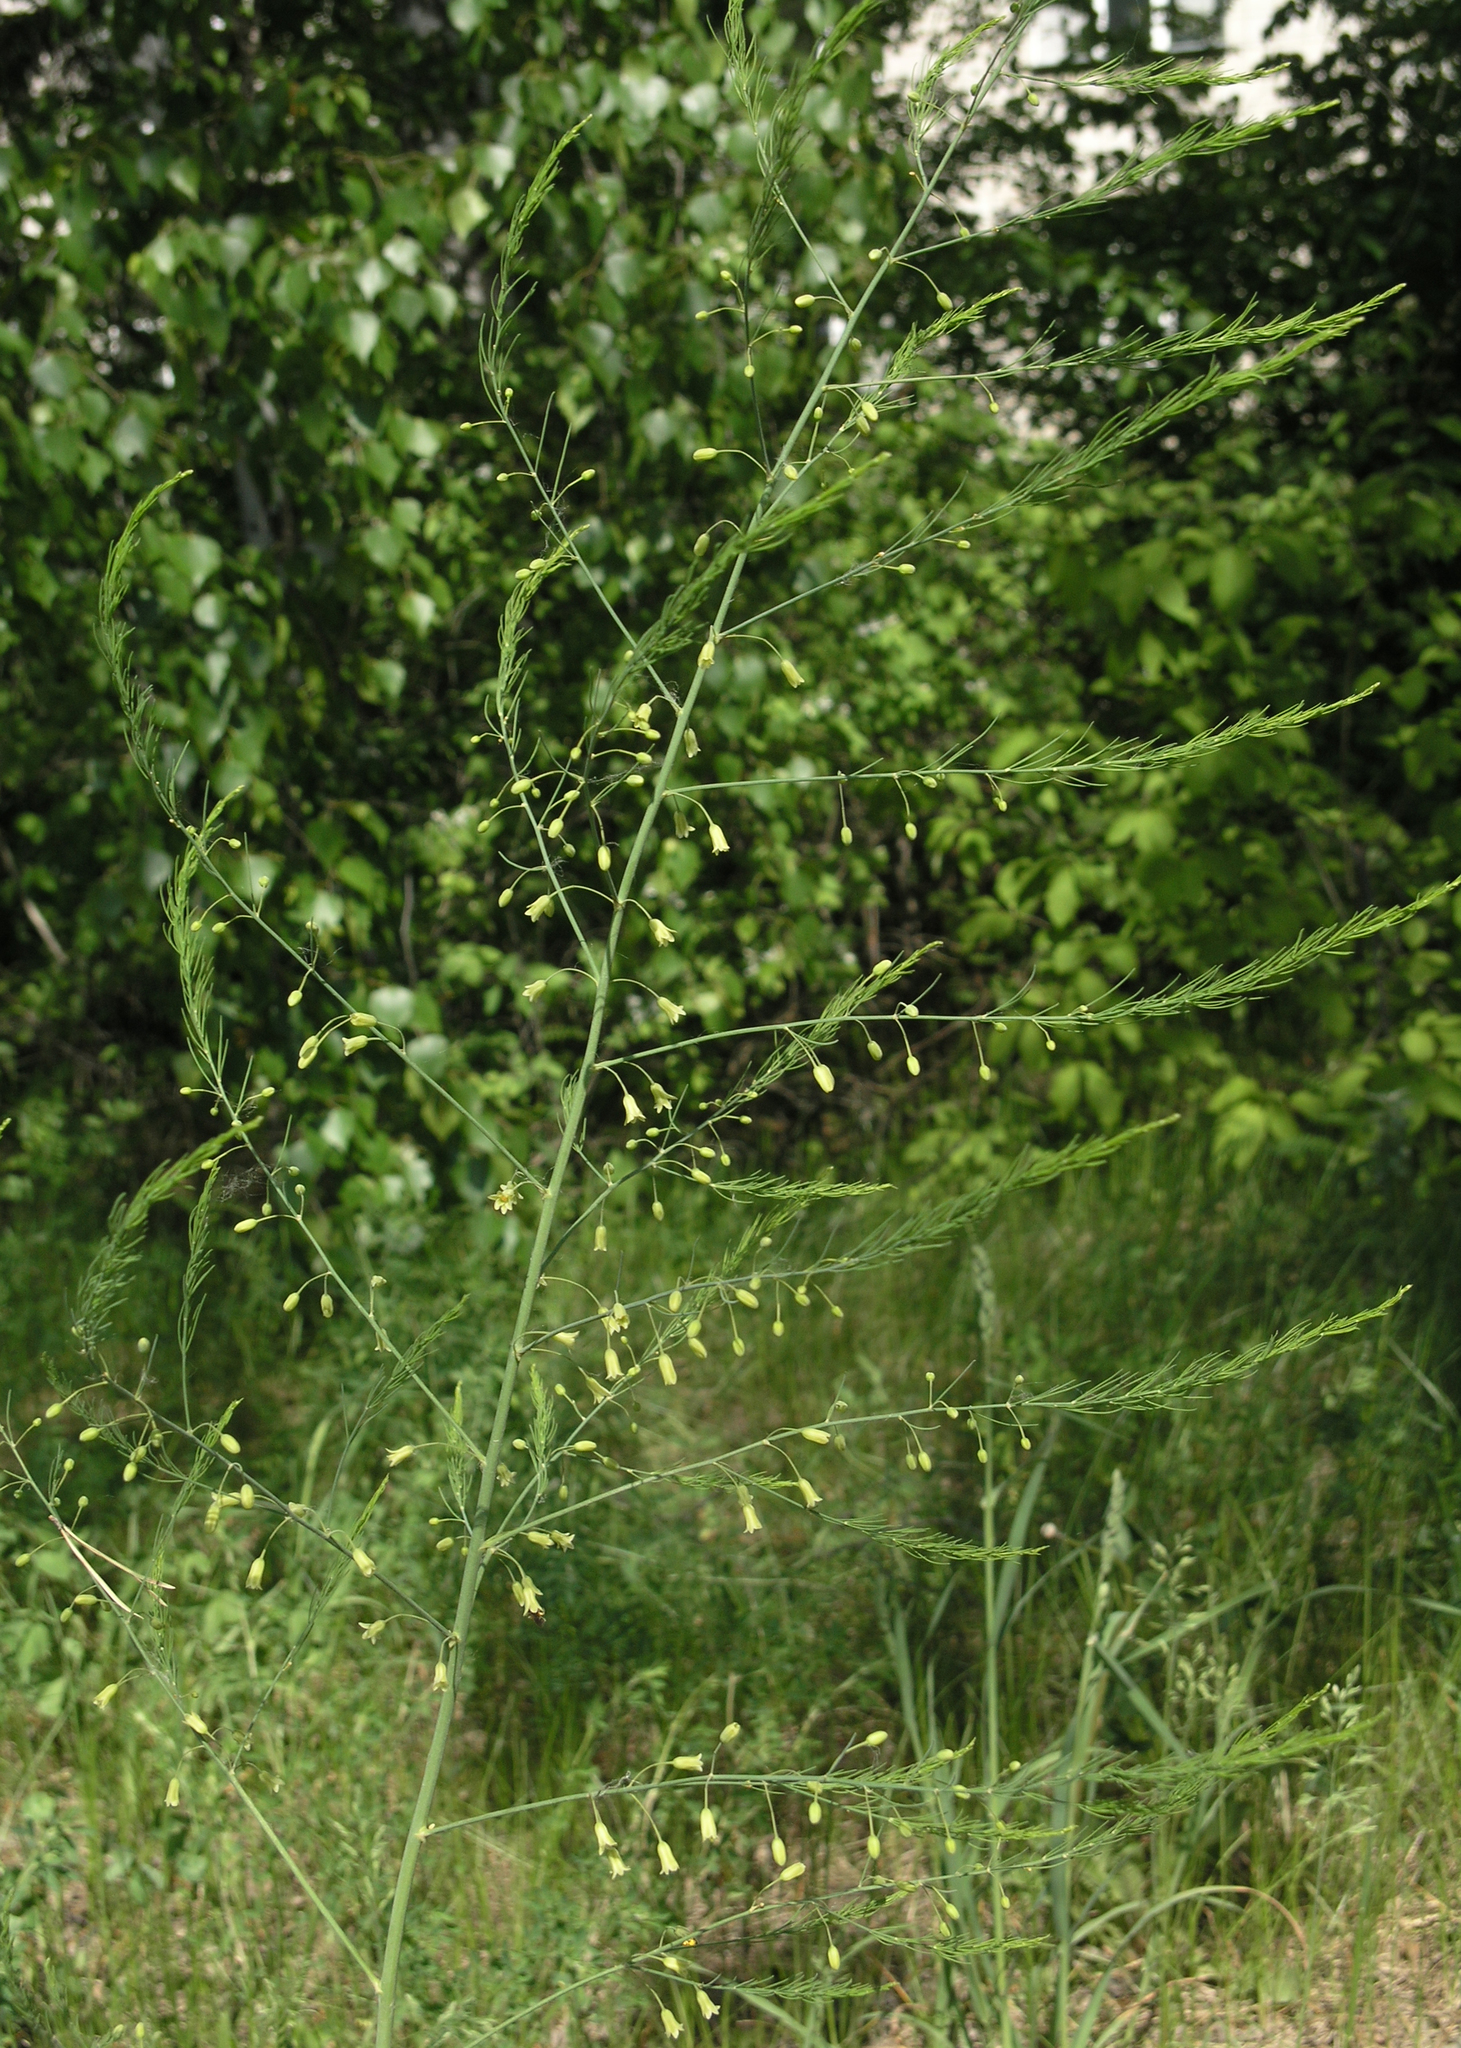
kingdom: Plantae
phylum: Tracheophyta
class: Liliopsida
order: Asparagales
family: Asparagaceae
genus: Asparagus
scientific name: Asparagus officinalis
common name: Garden asparagus
